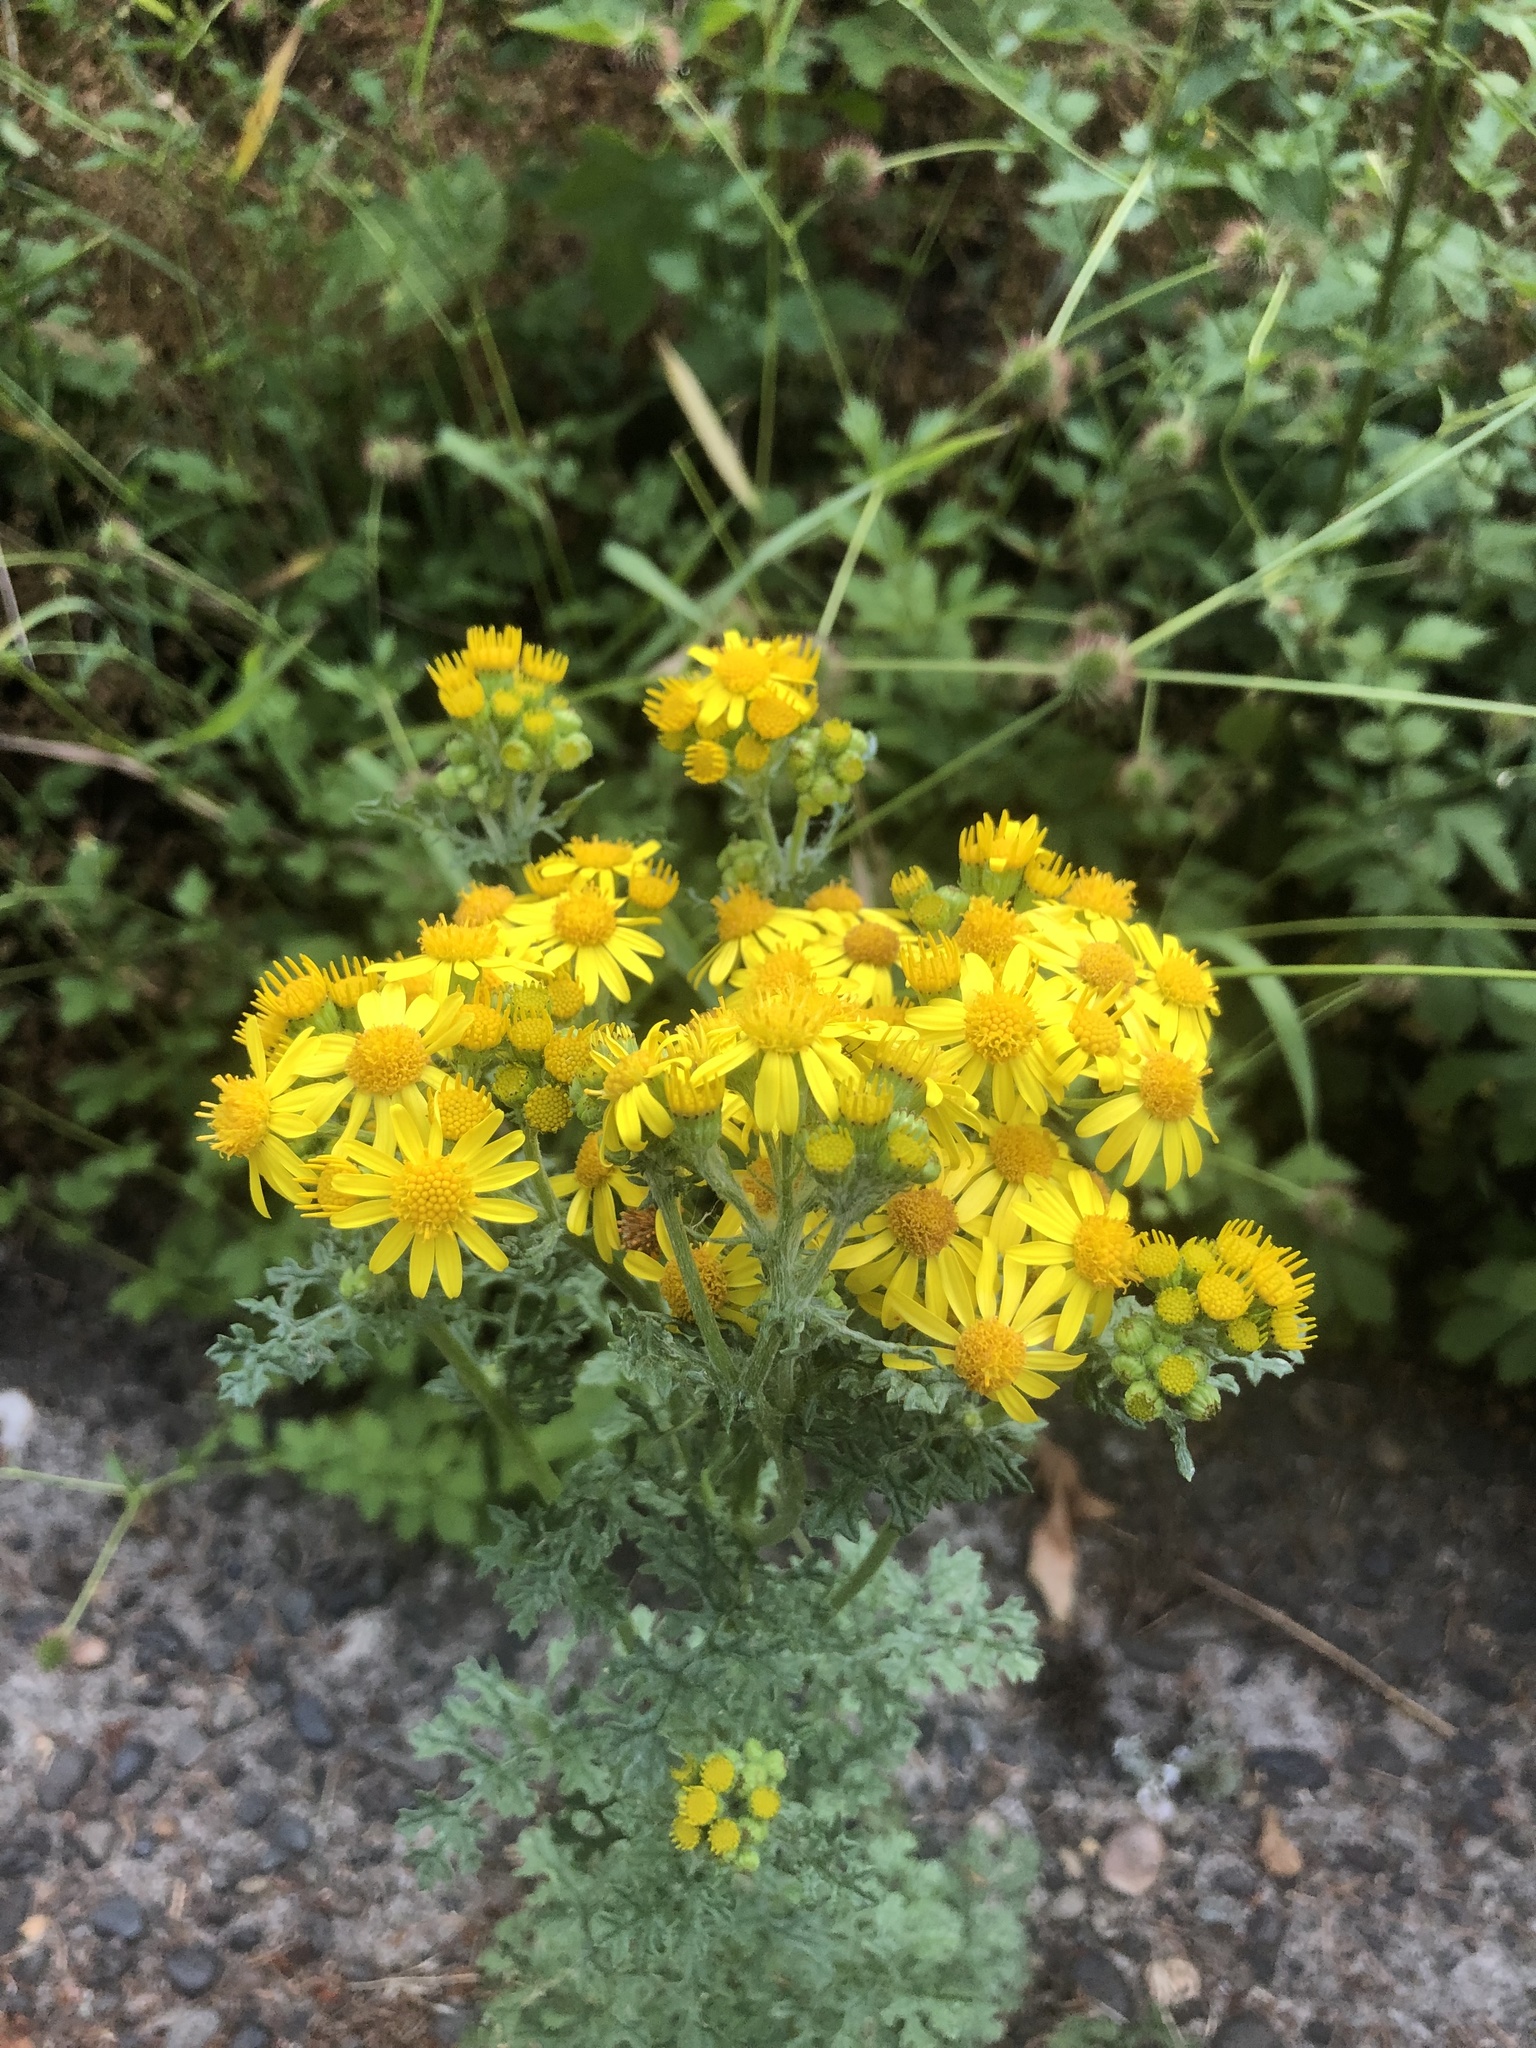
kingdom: Plantae
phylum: Tracheophyta
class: Magnoliopsida
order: Asterales
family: Asteraceae
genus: Jacobaea
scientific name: Jacobaea vulgaris
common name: Stinking willie
